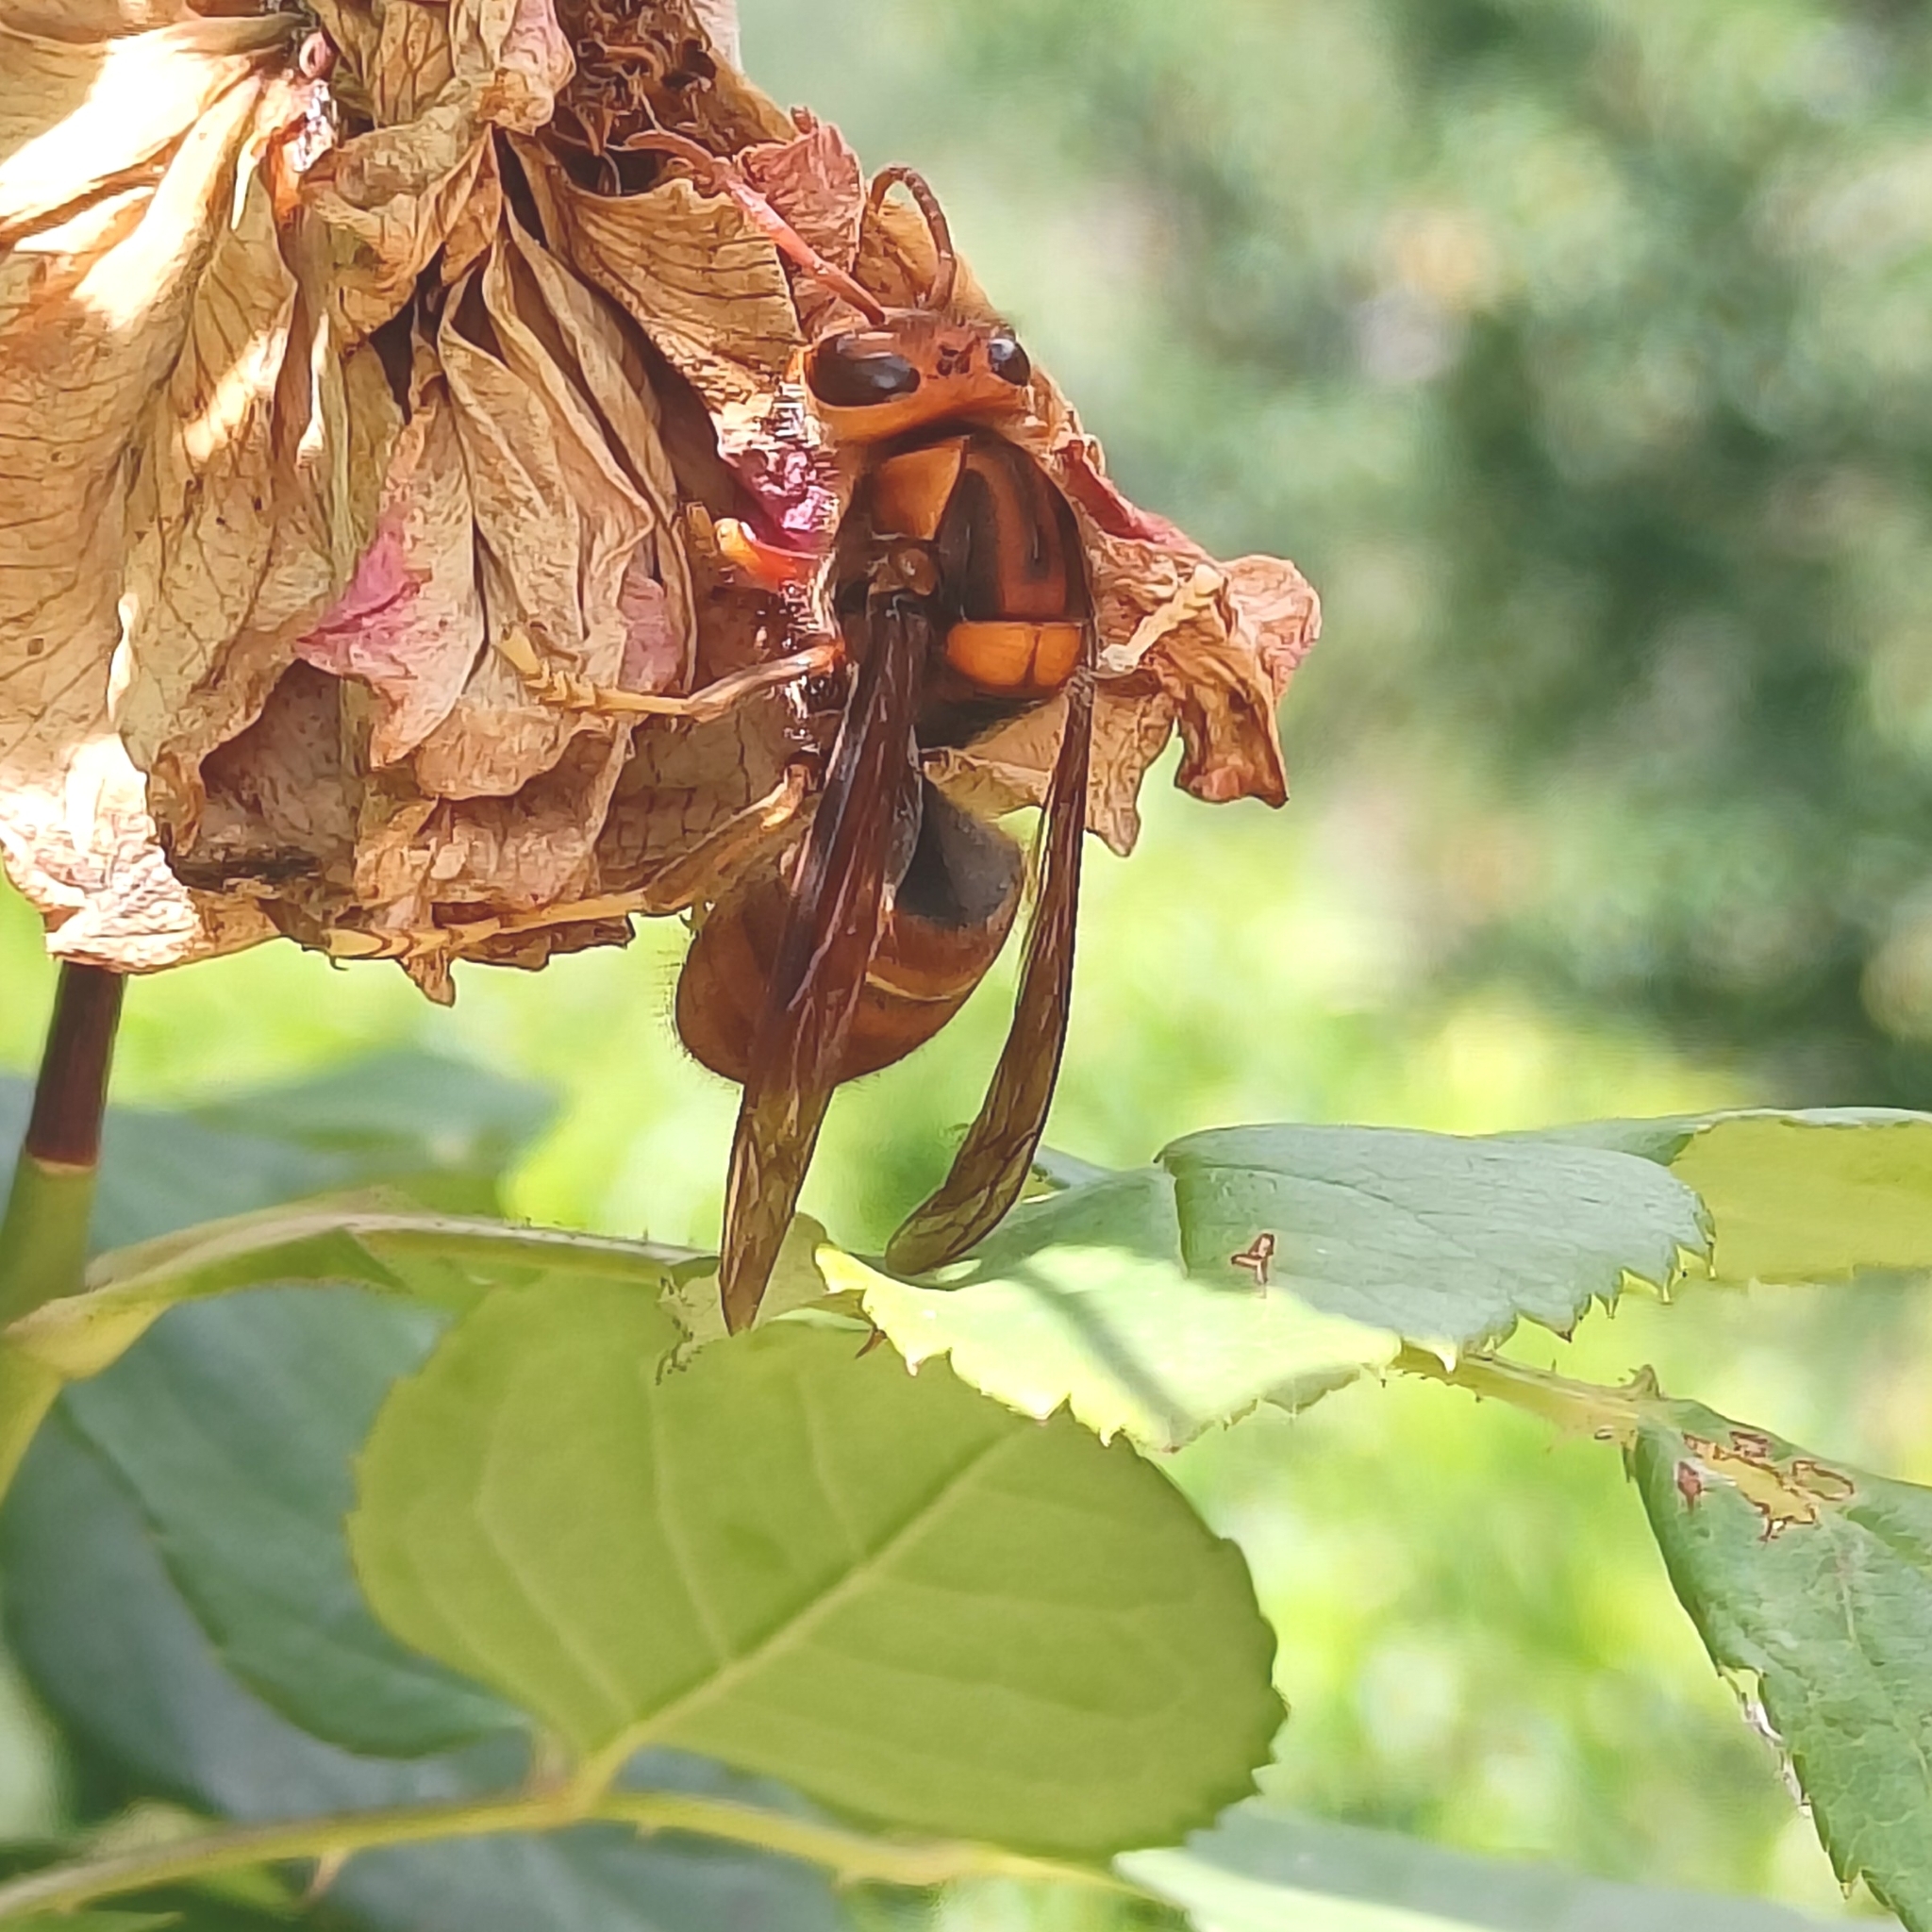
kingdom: Animalia
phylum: Arthropoda
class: Insecta
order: Hymenoptera
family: Vespidae
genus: Vespa
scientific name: Vespa velutina
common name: Asian hornet
